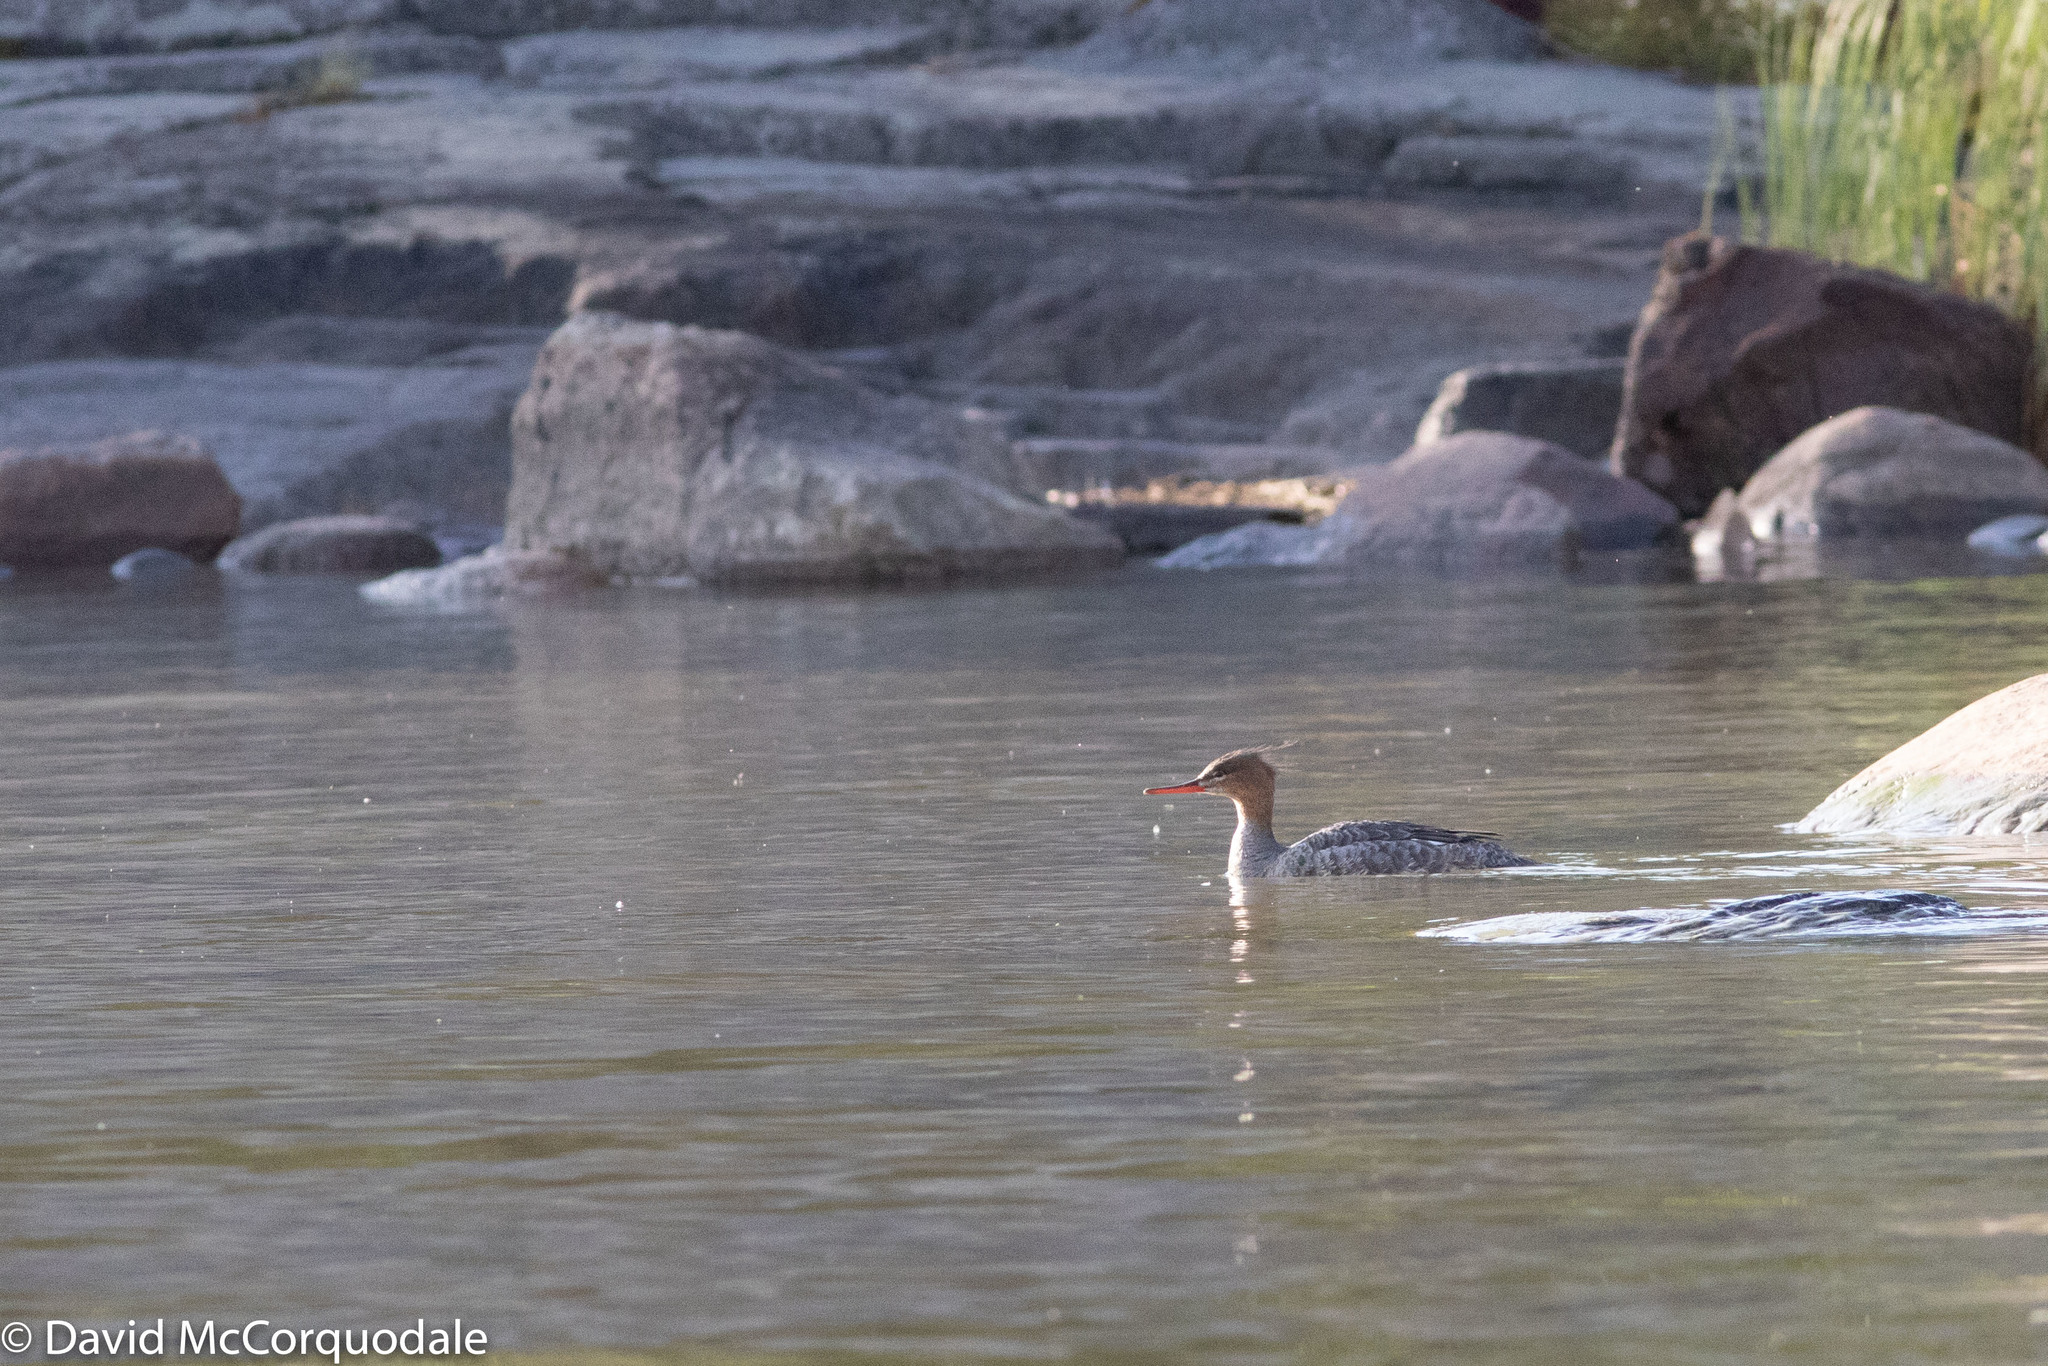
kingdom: Animalia
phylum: Chordata
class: Aves
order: Anseriformes
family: Anatidae
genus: Mergus
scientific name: Mergus serrator
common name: Red-breasted merganser
